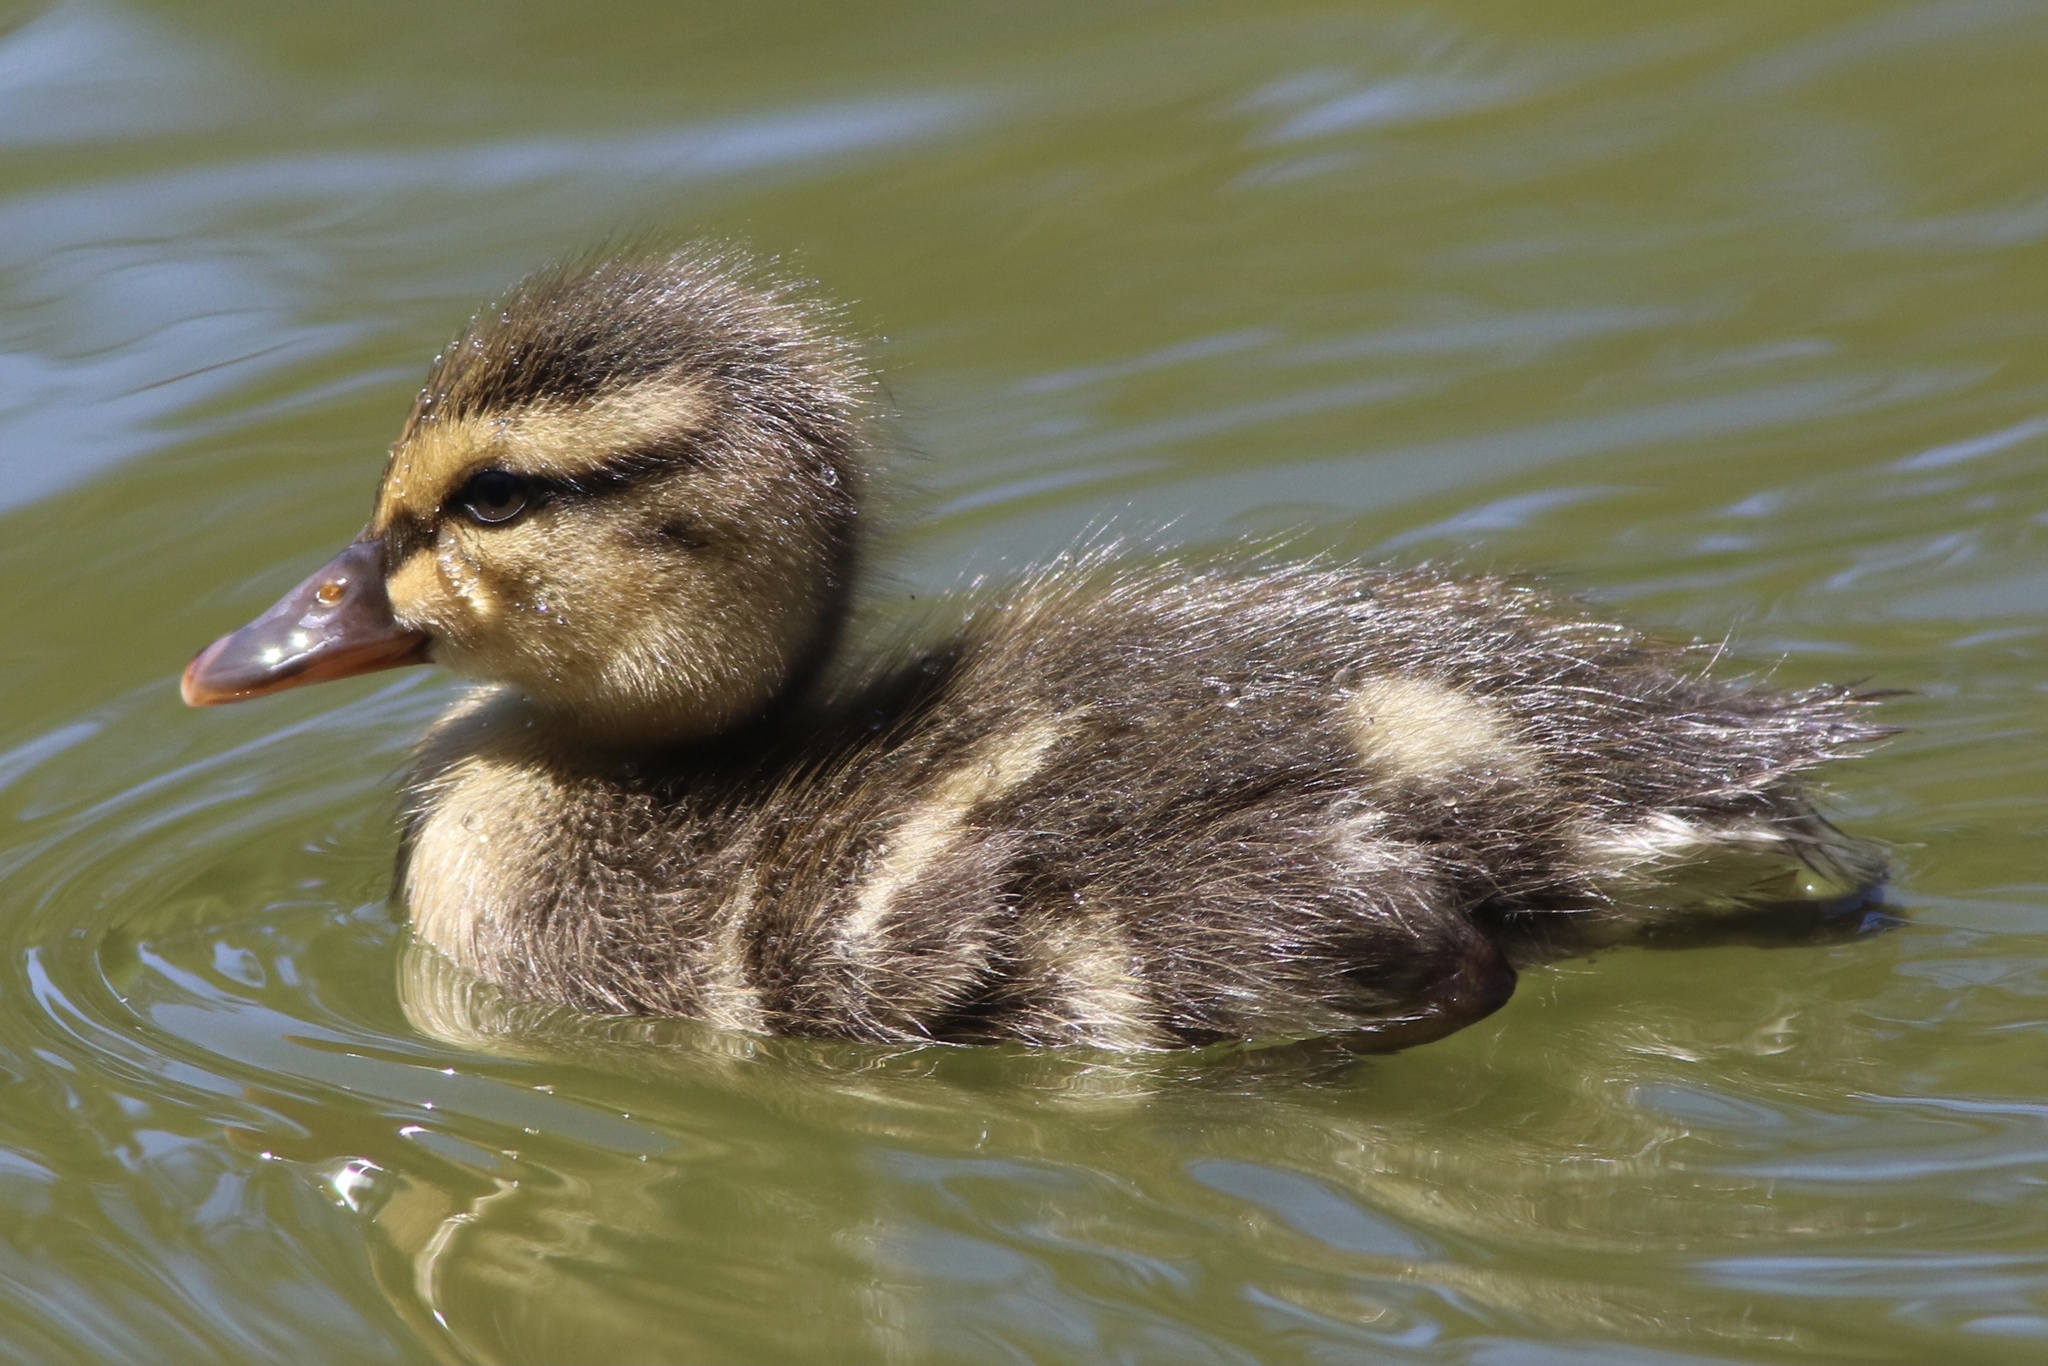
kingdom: Animalia
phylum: Chordata
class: Aves
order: Anseriformes
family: Anatidae
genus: Anas
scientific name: Anas platyrhynchos
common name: Mallard
